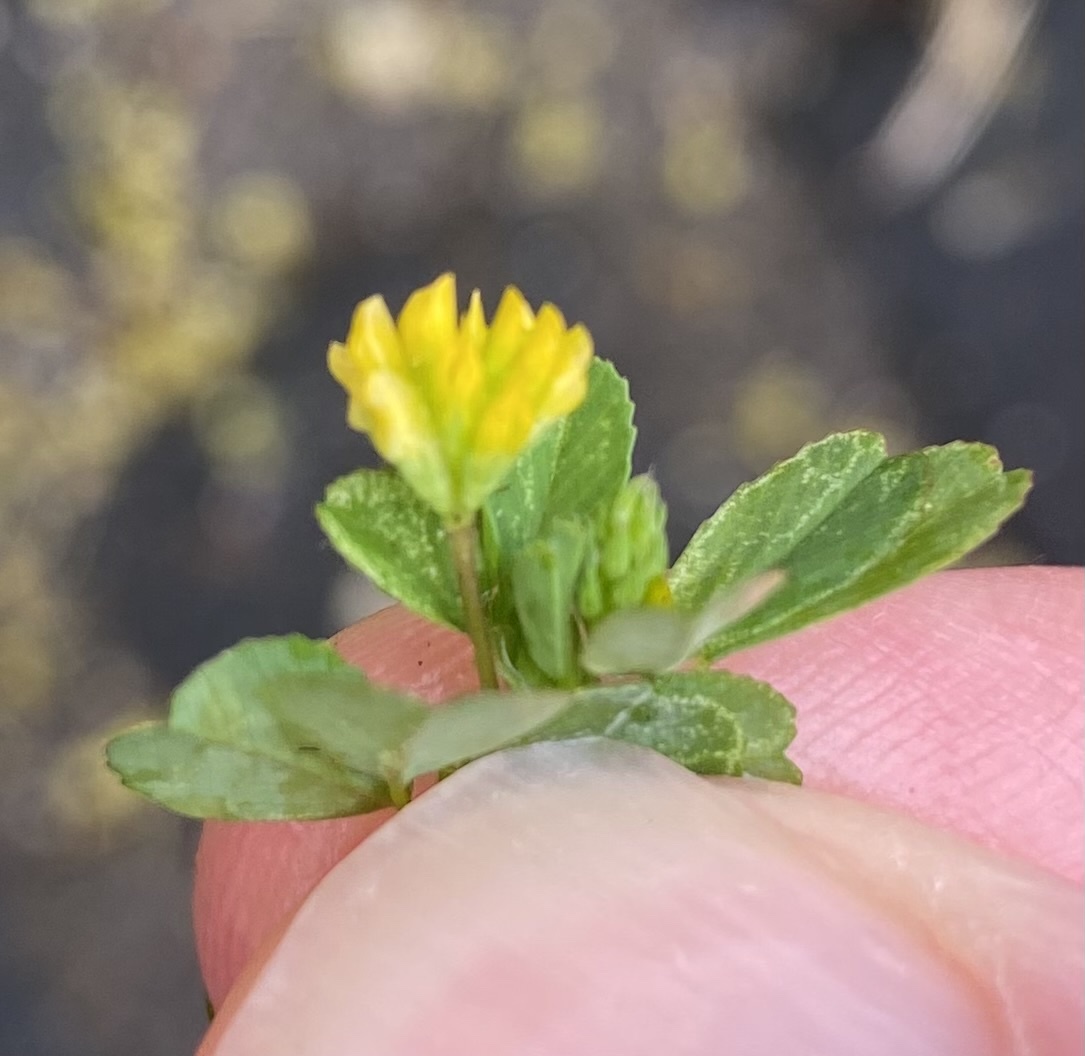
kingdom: Plantae
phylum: Tracheophyta
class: Magnoliopsida
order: Fabales
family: Fabaceae
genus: Trifolium
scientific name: Trifolium dubium
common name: Suckling clover
